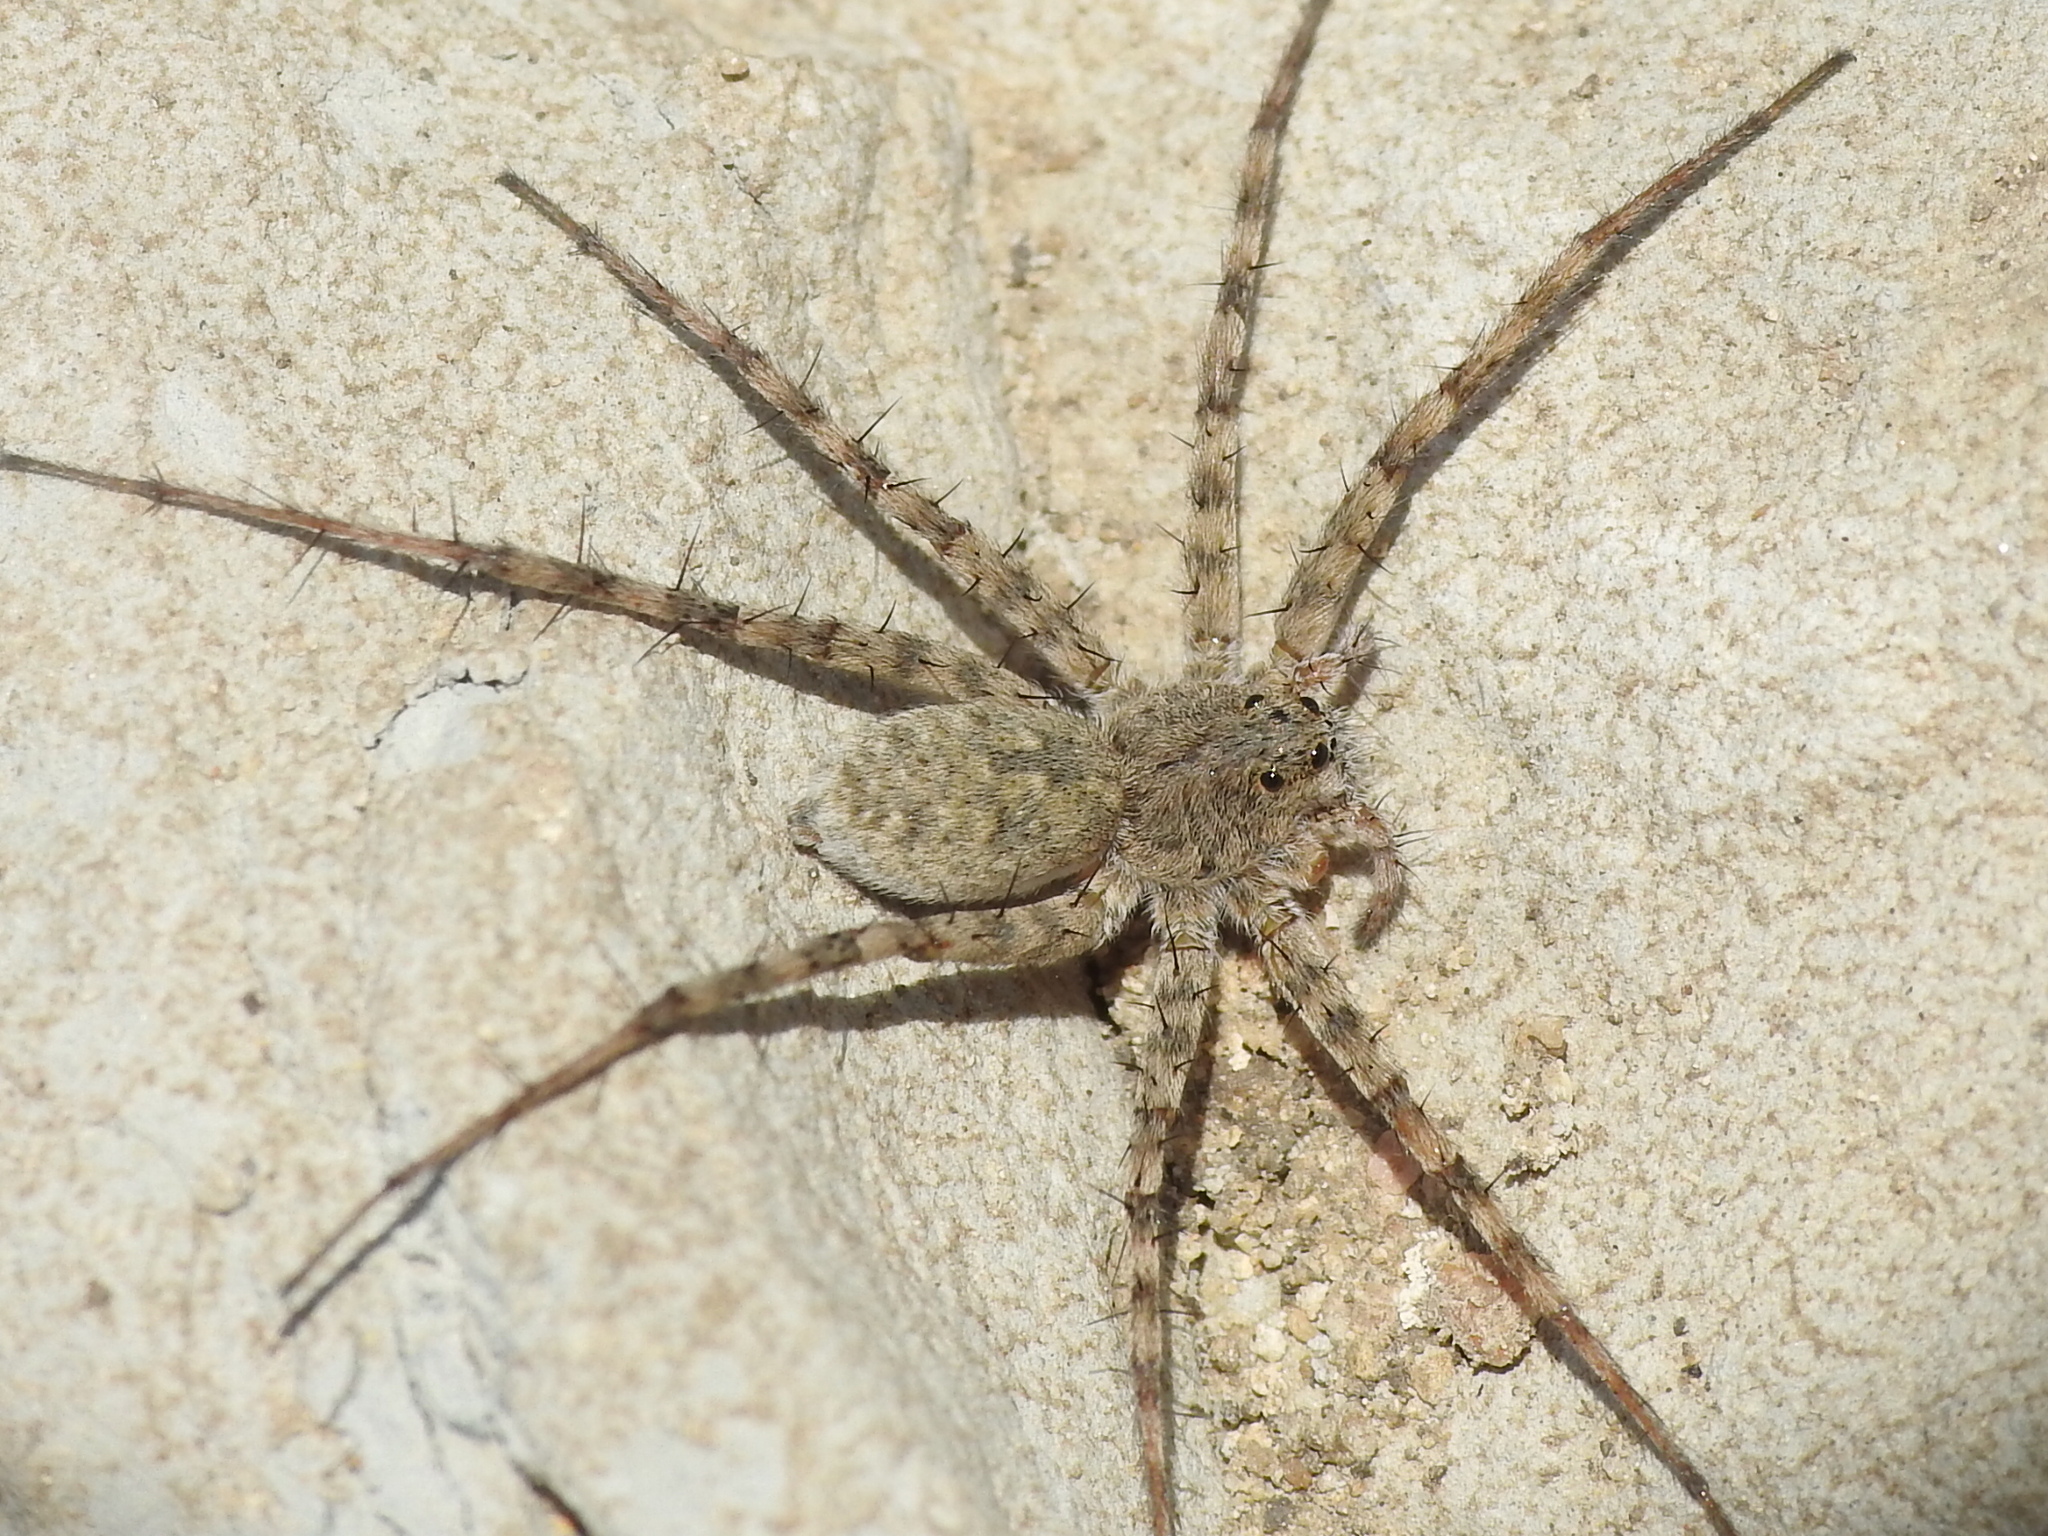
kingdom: Animalia
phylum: Arthropoda
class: Arachnida
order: Araneae
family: Lycosidae
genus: Pardosa
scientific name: Pardosa mercurialis
